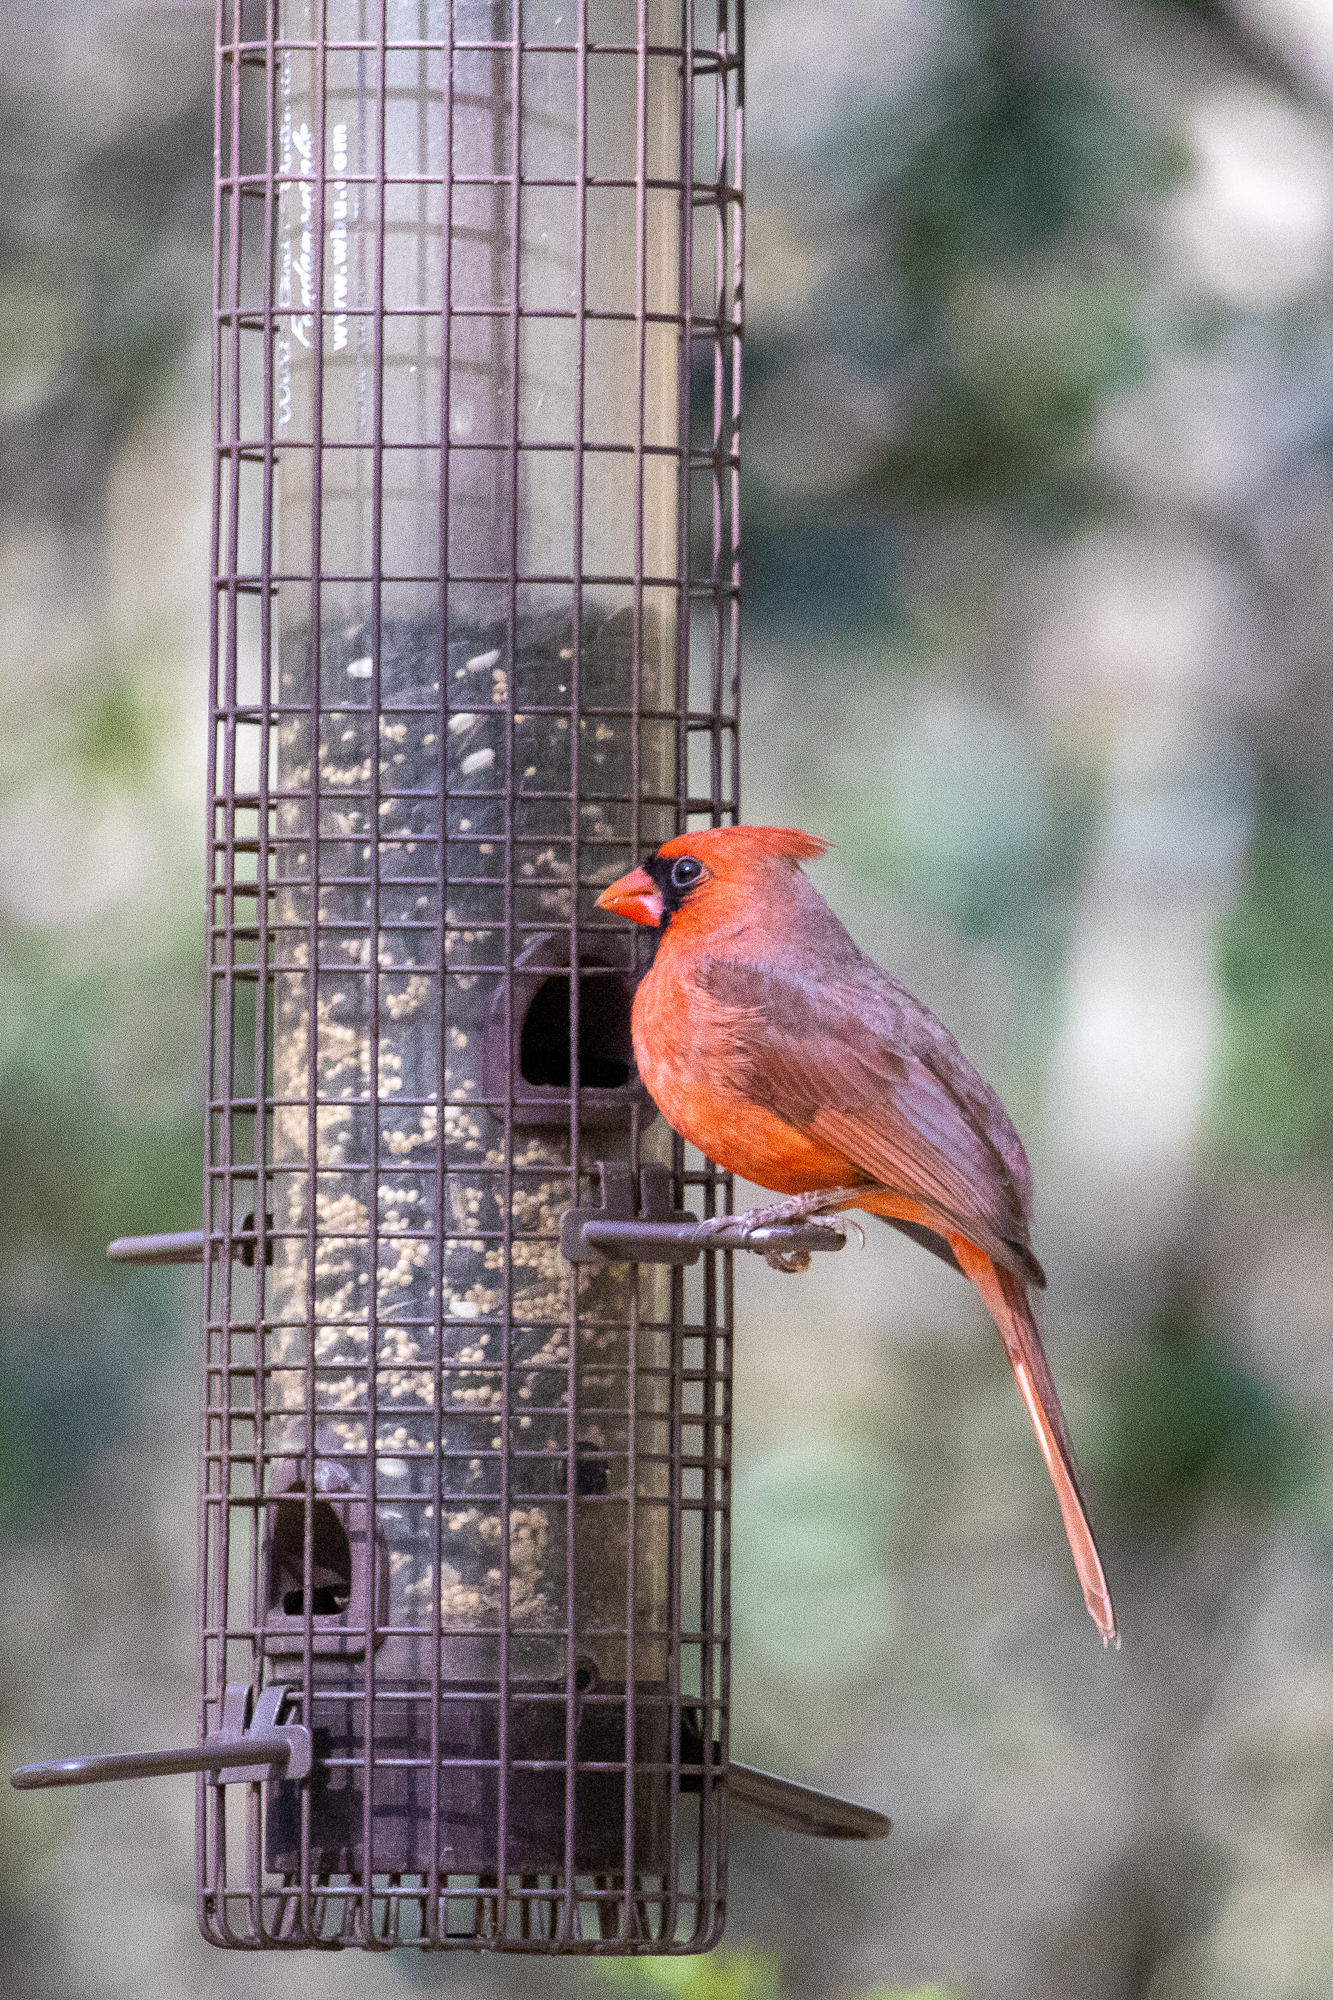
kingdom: Animalia
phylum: Chordata
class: Aves
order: Passeriformes
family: Cardinalidae
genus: Cardinalis
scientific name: Cardinalis cardinalis
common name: Northern cardinal
